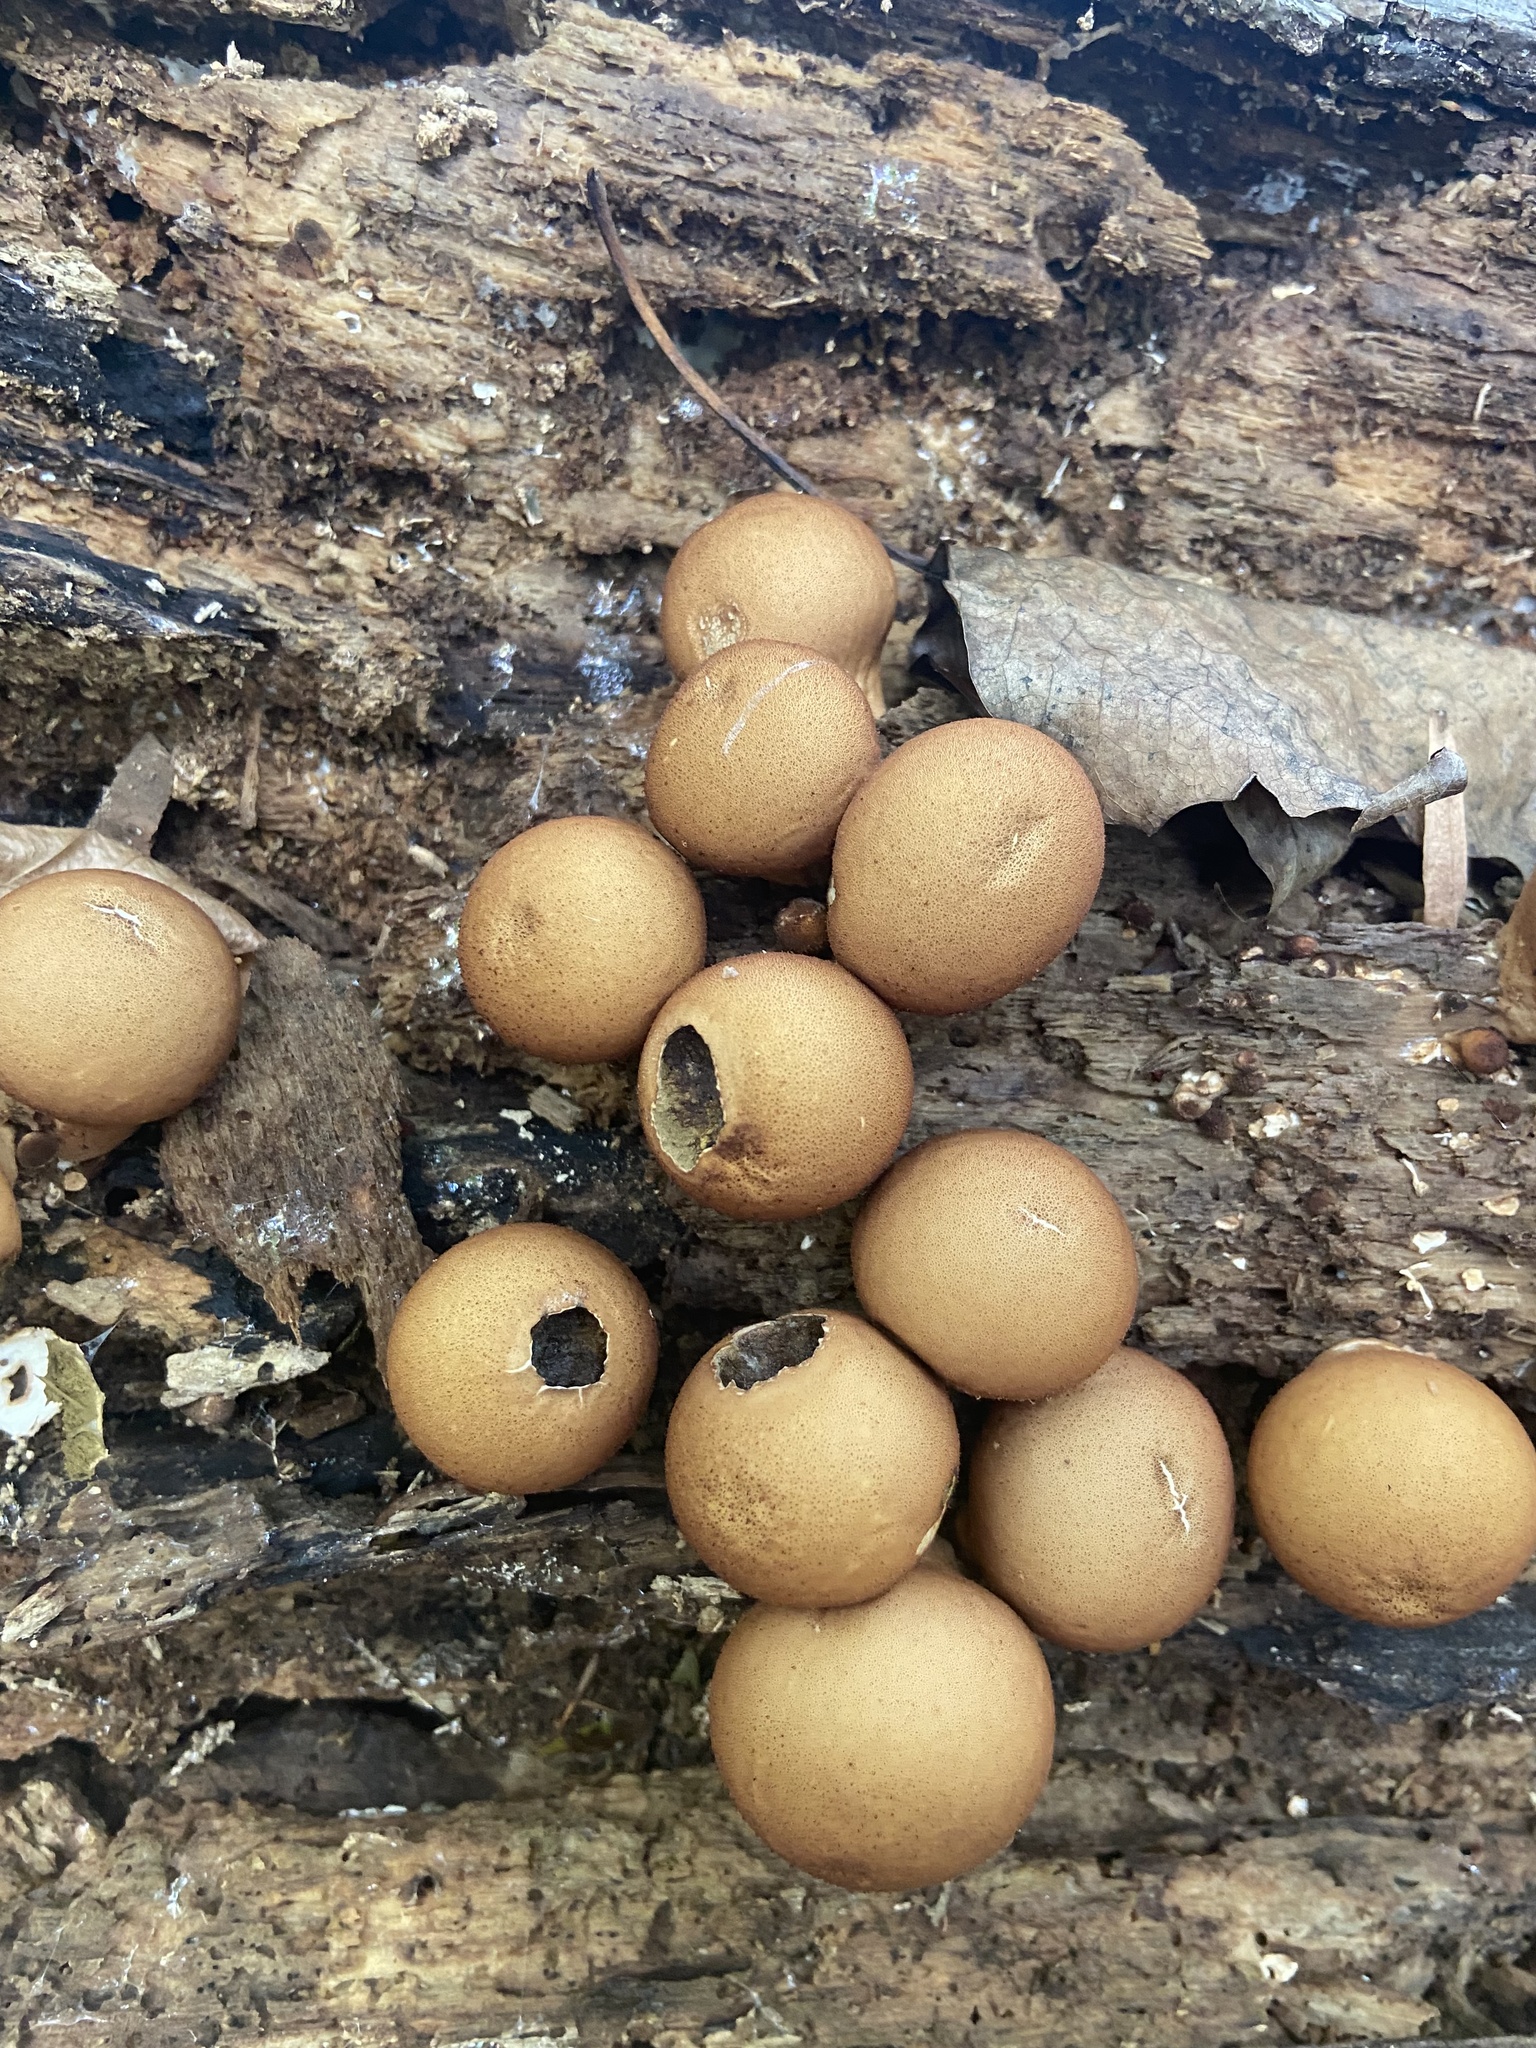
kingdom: Fungi
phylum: Basidiomycota
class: Agaricomycetes
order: Agaricales
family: Lycoperdaceae
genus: Apioperdon
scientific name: Apioperdon pyriforme
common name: Pear-shaped puffball
